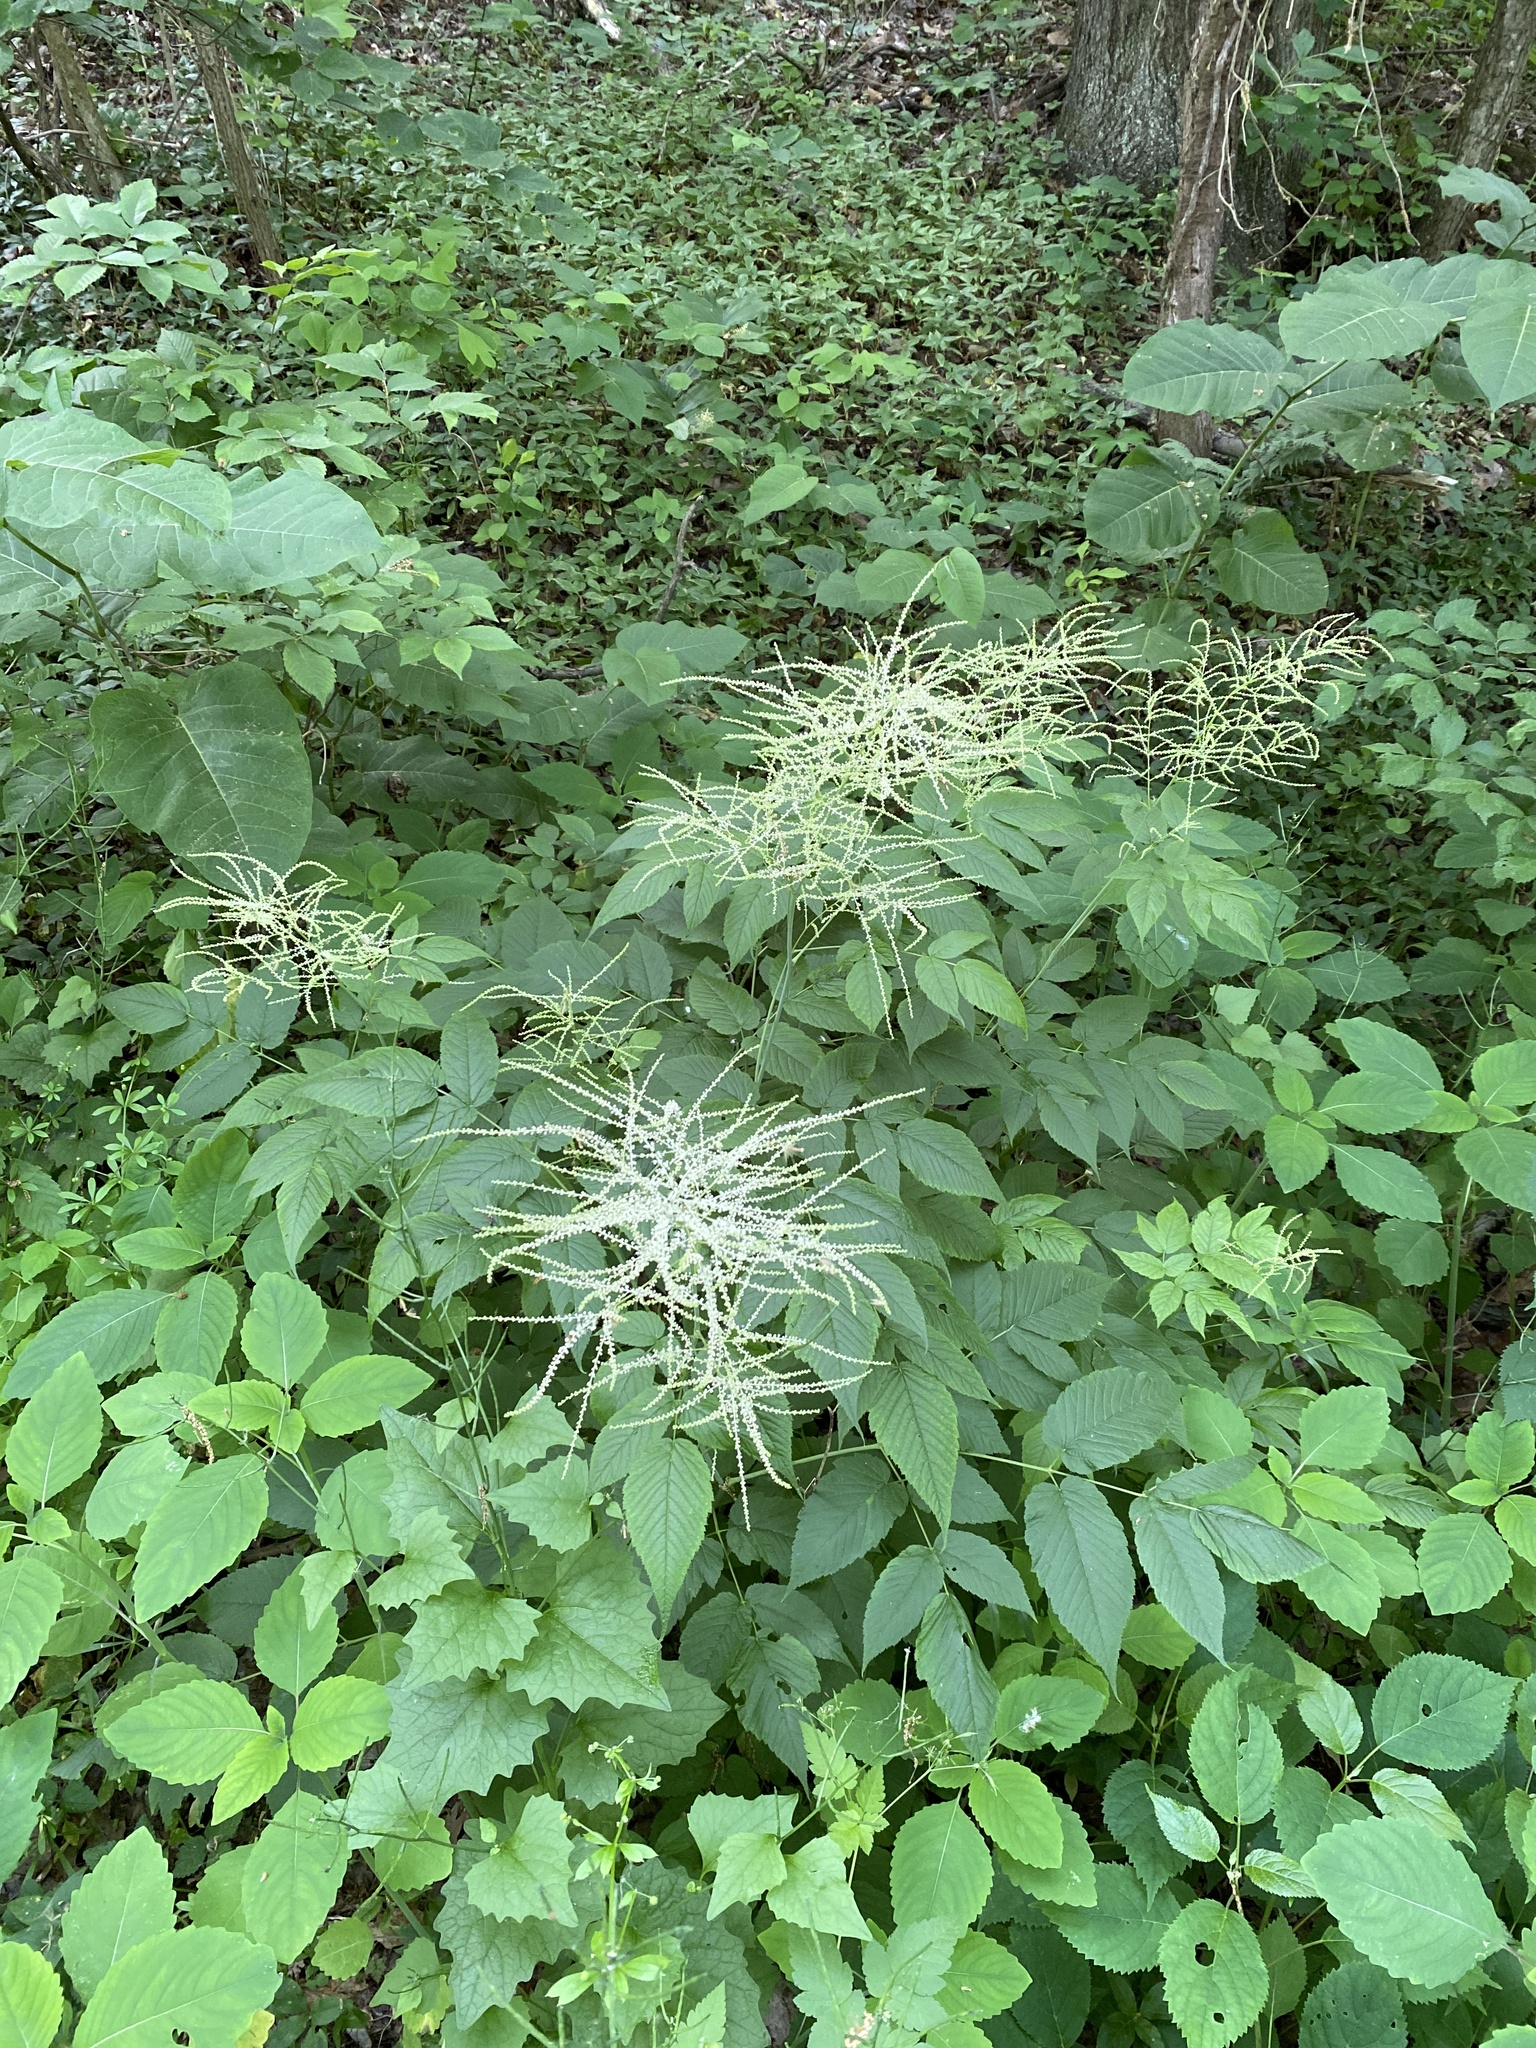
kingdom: Plantae
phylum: Tracheophyta
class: Magnoliopsida
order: Rosales
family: Rosaceae
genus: Aruncus
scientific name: Aruncus dioicus
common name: Buck's-beard
